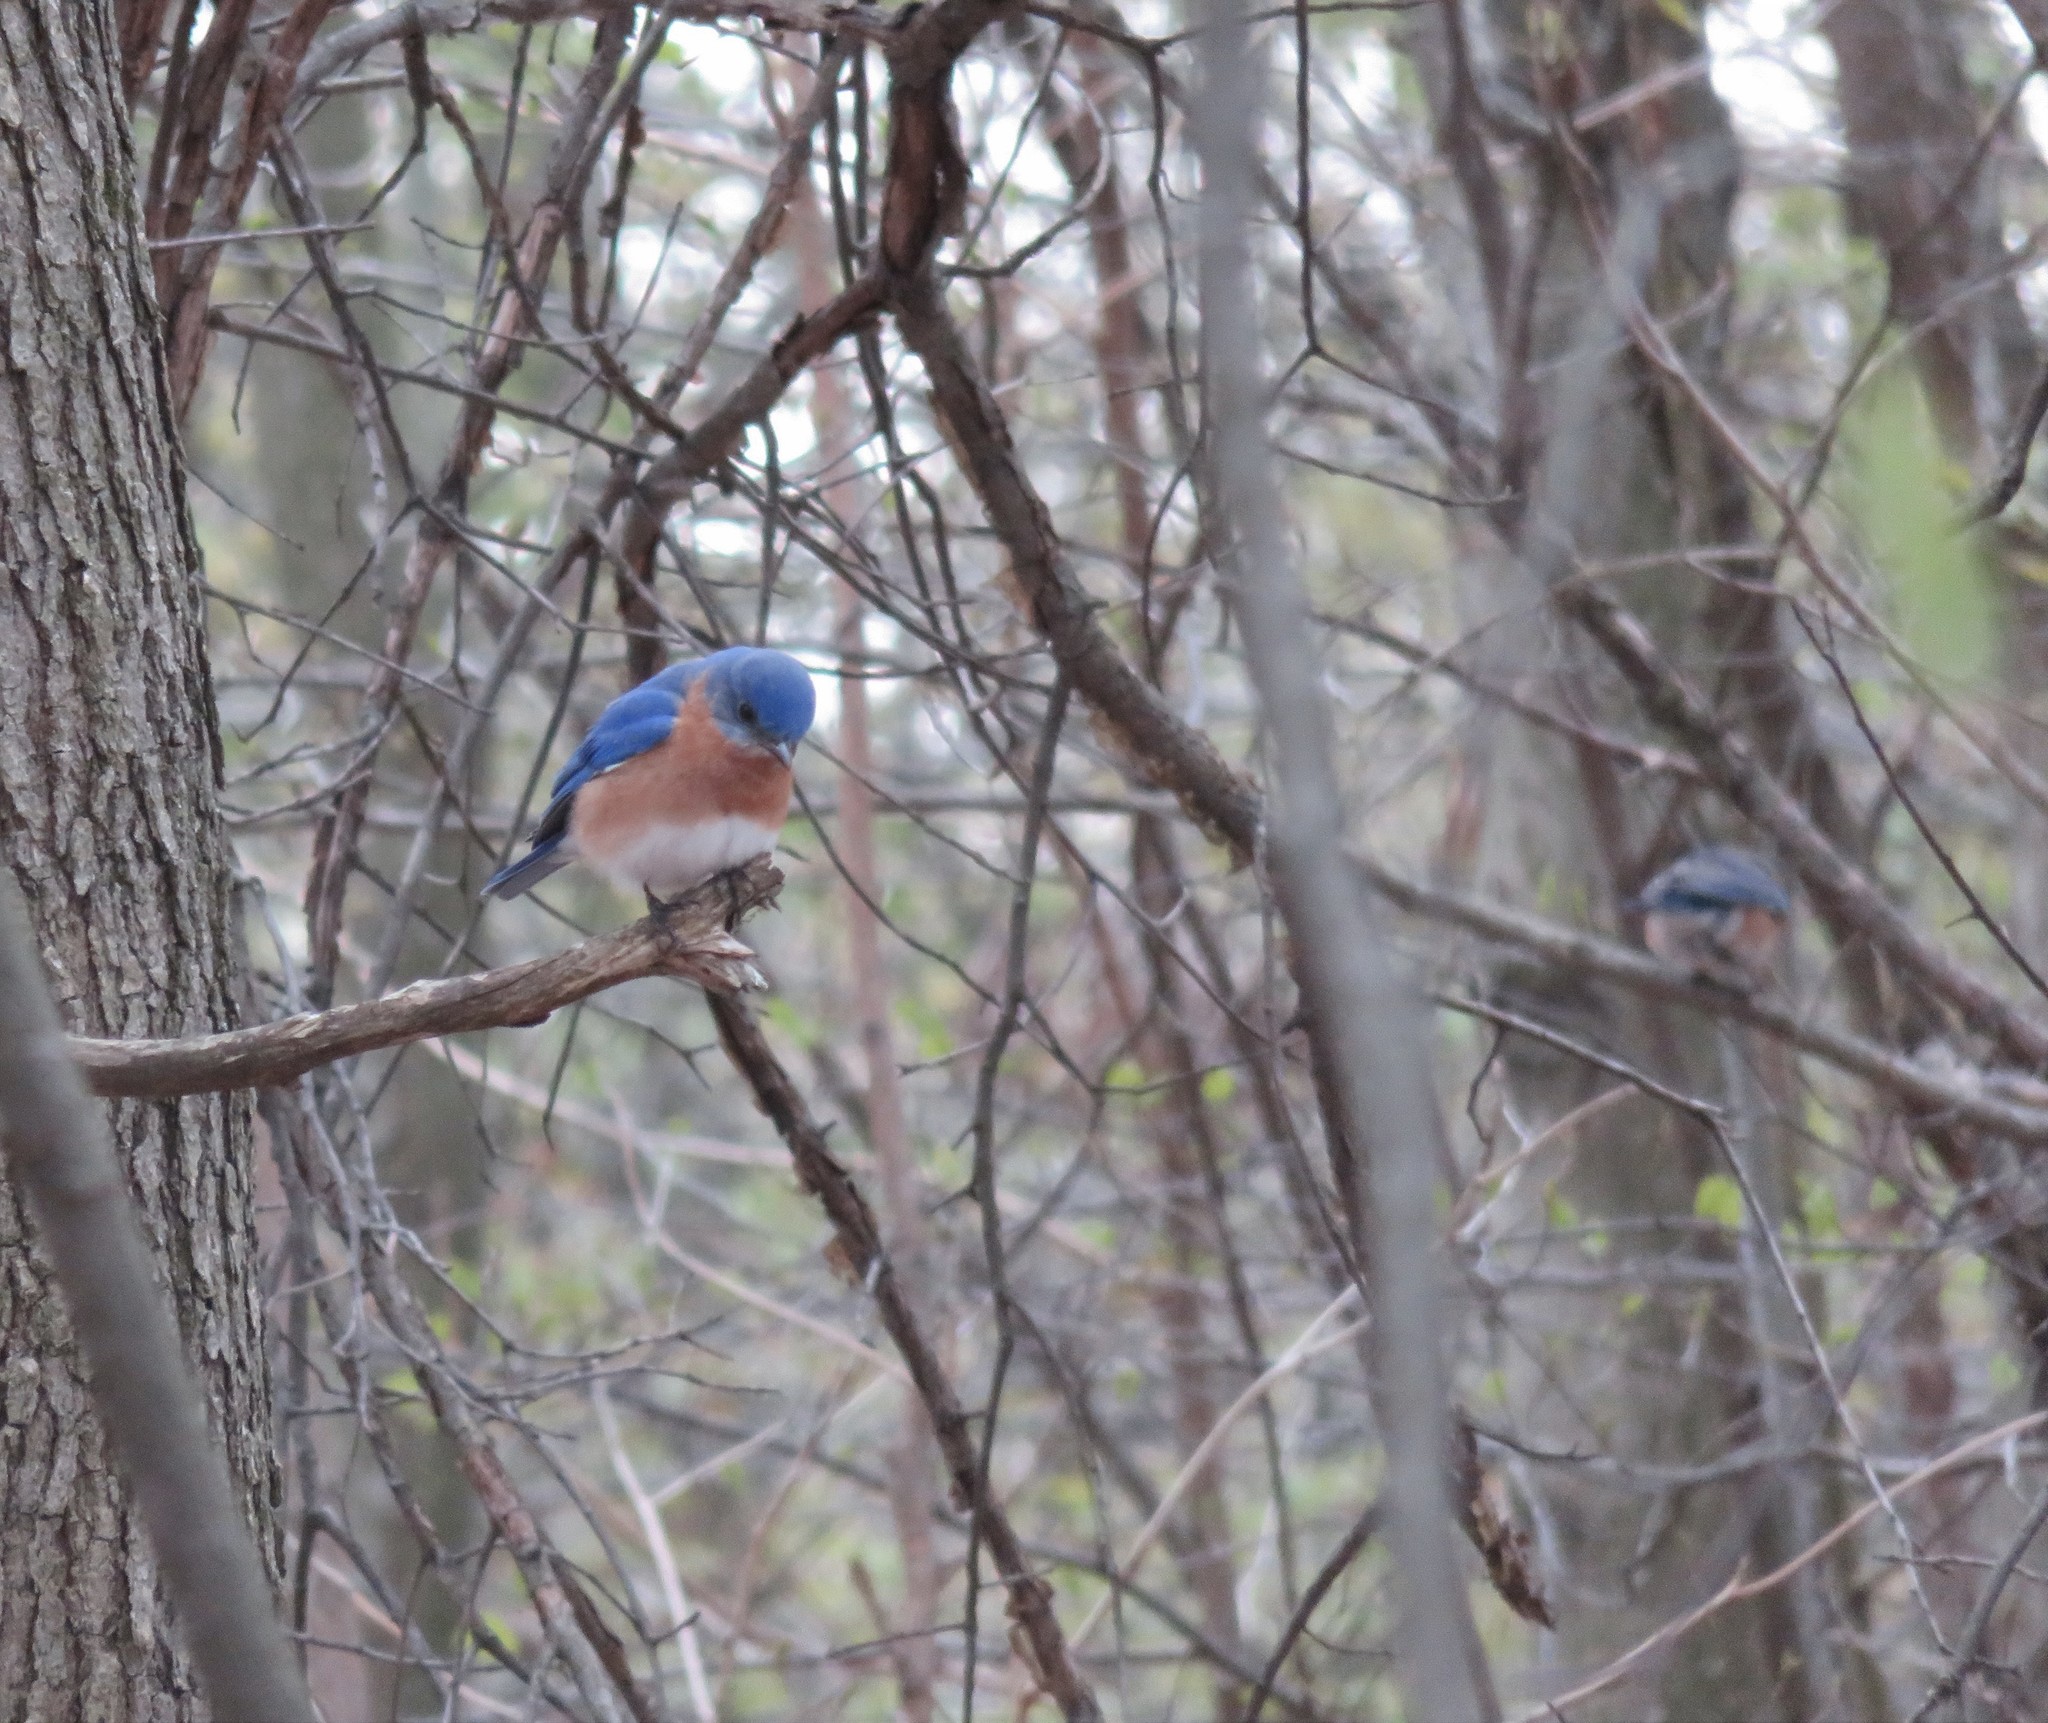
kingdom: Animalia
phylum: Chordata
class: Aves
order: Passeriformes
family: Turdidae
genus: Sialia
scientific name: Sialia sialis
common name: Eastern bluebird
